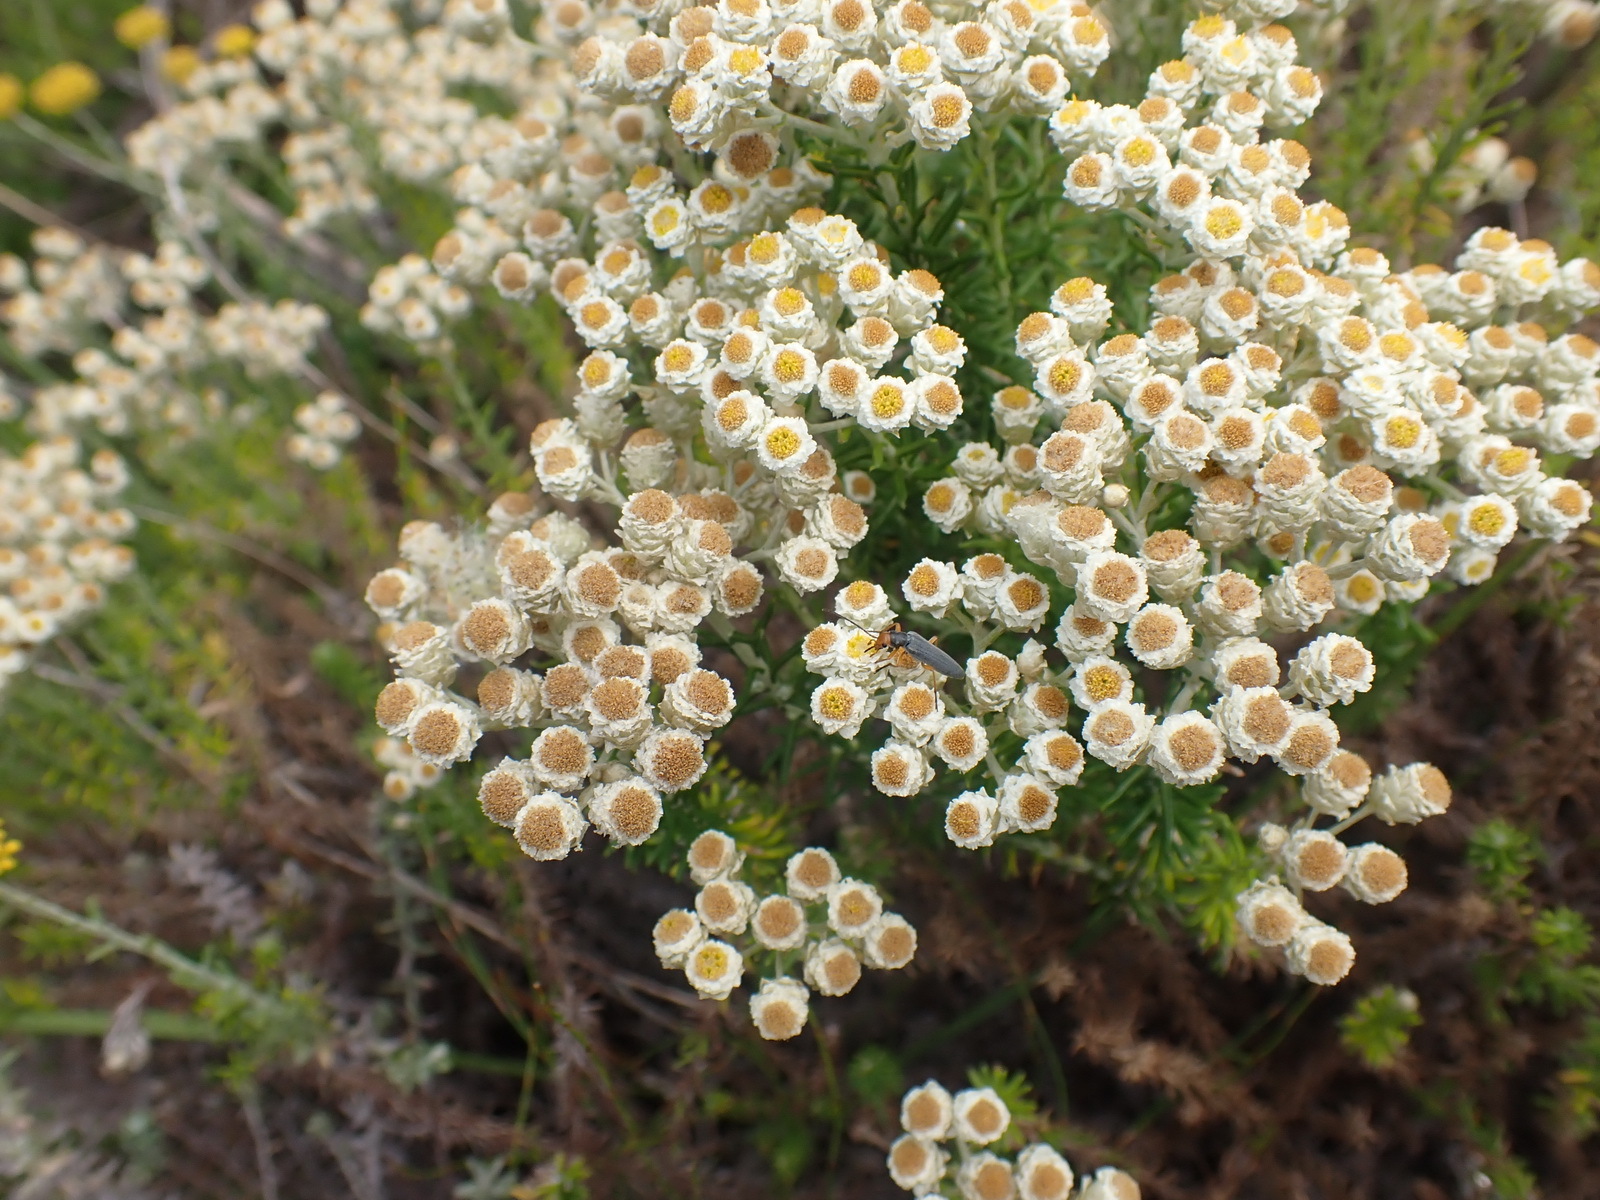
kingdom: Plantae
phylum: Tracheophyta
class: Magnoliopsida
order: Asterales
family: Asteraceae
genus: Helichrysum
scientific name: Helichrysum teretifolium
